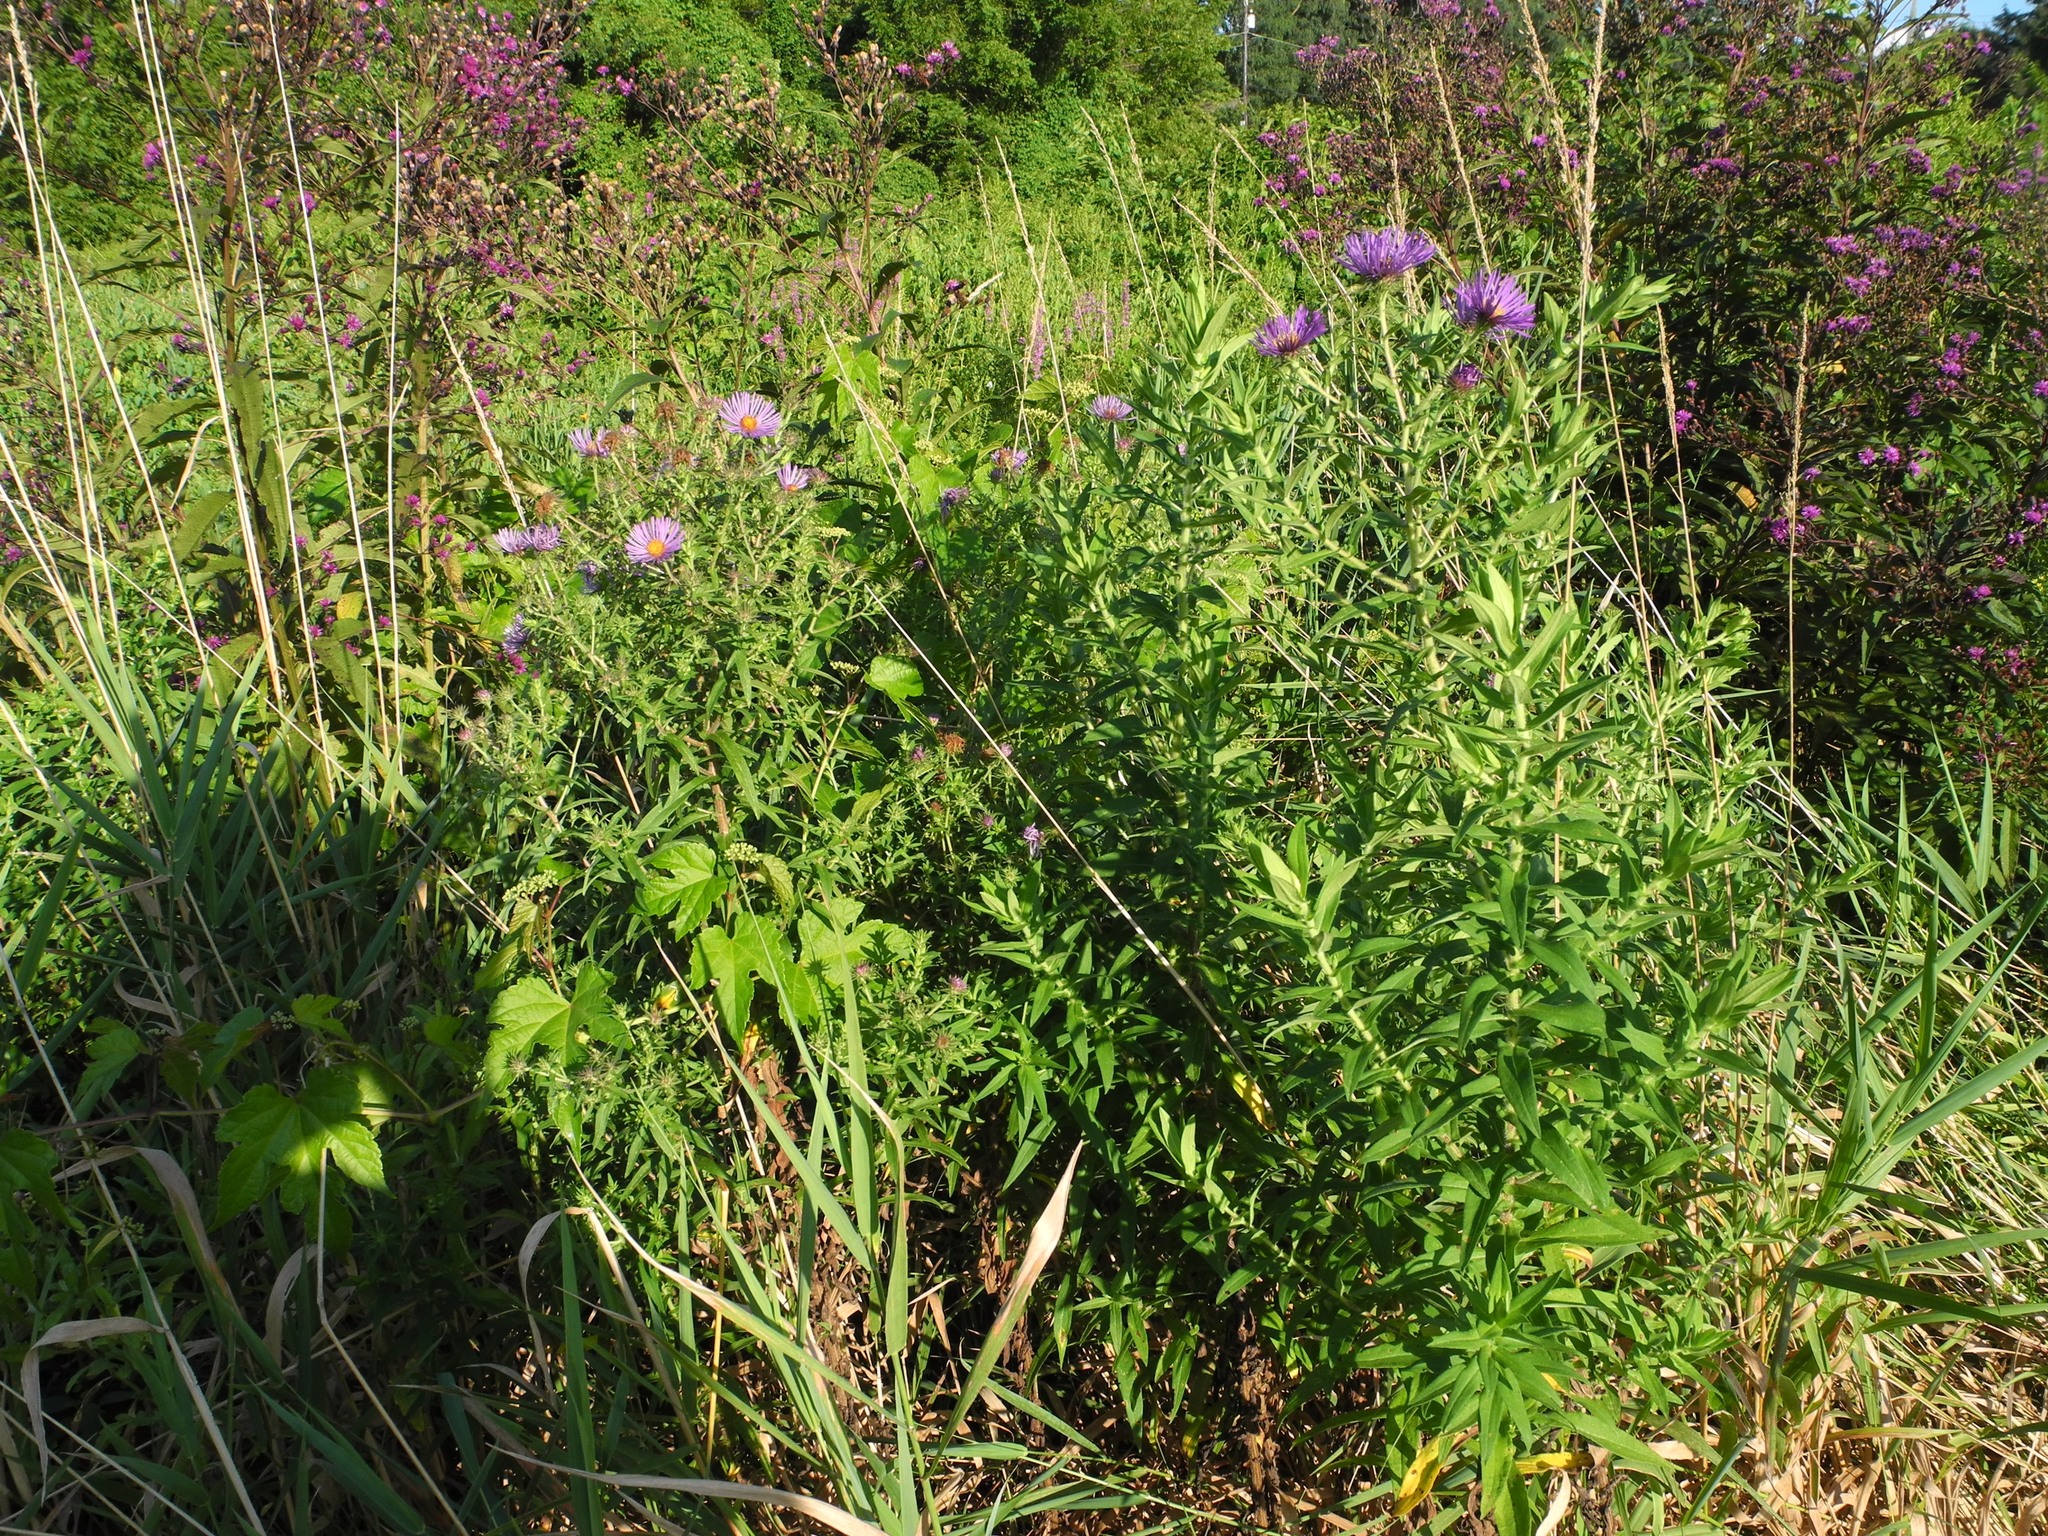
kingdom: Plantae
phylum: Tracheophyta
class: Magnoliopsida
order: Asterales
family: Asteraceae
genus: Symphyotrichum
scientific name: Symphyotrichum novae-angliae
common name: Michaelmas daisy
